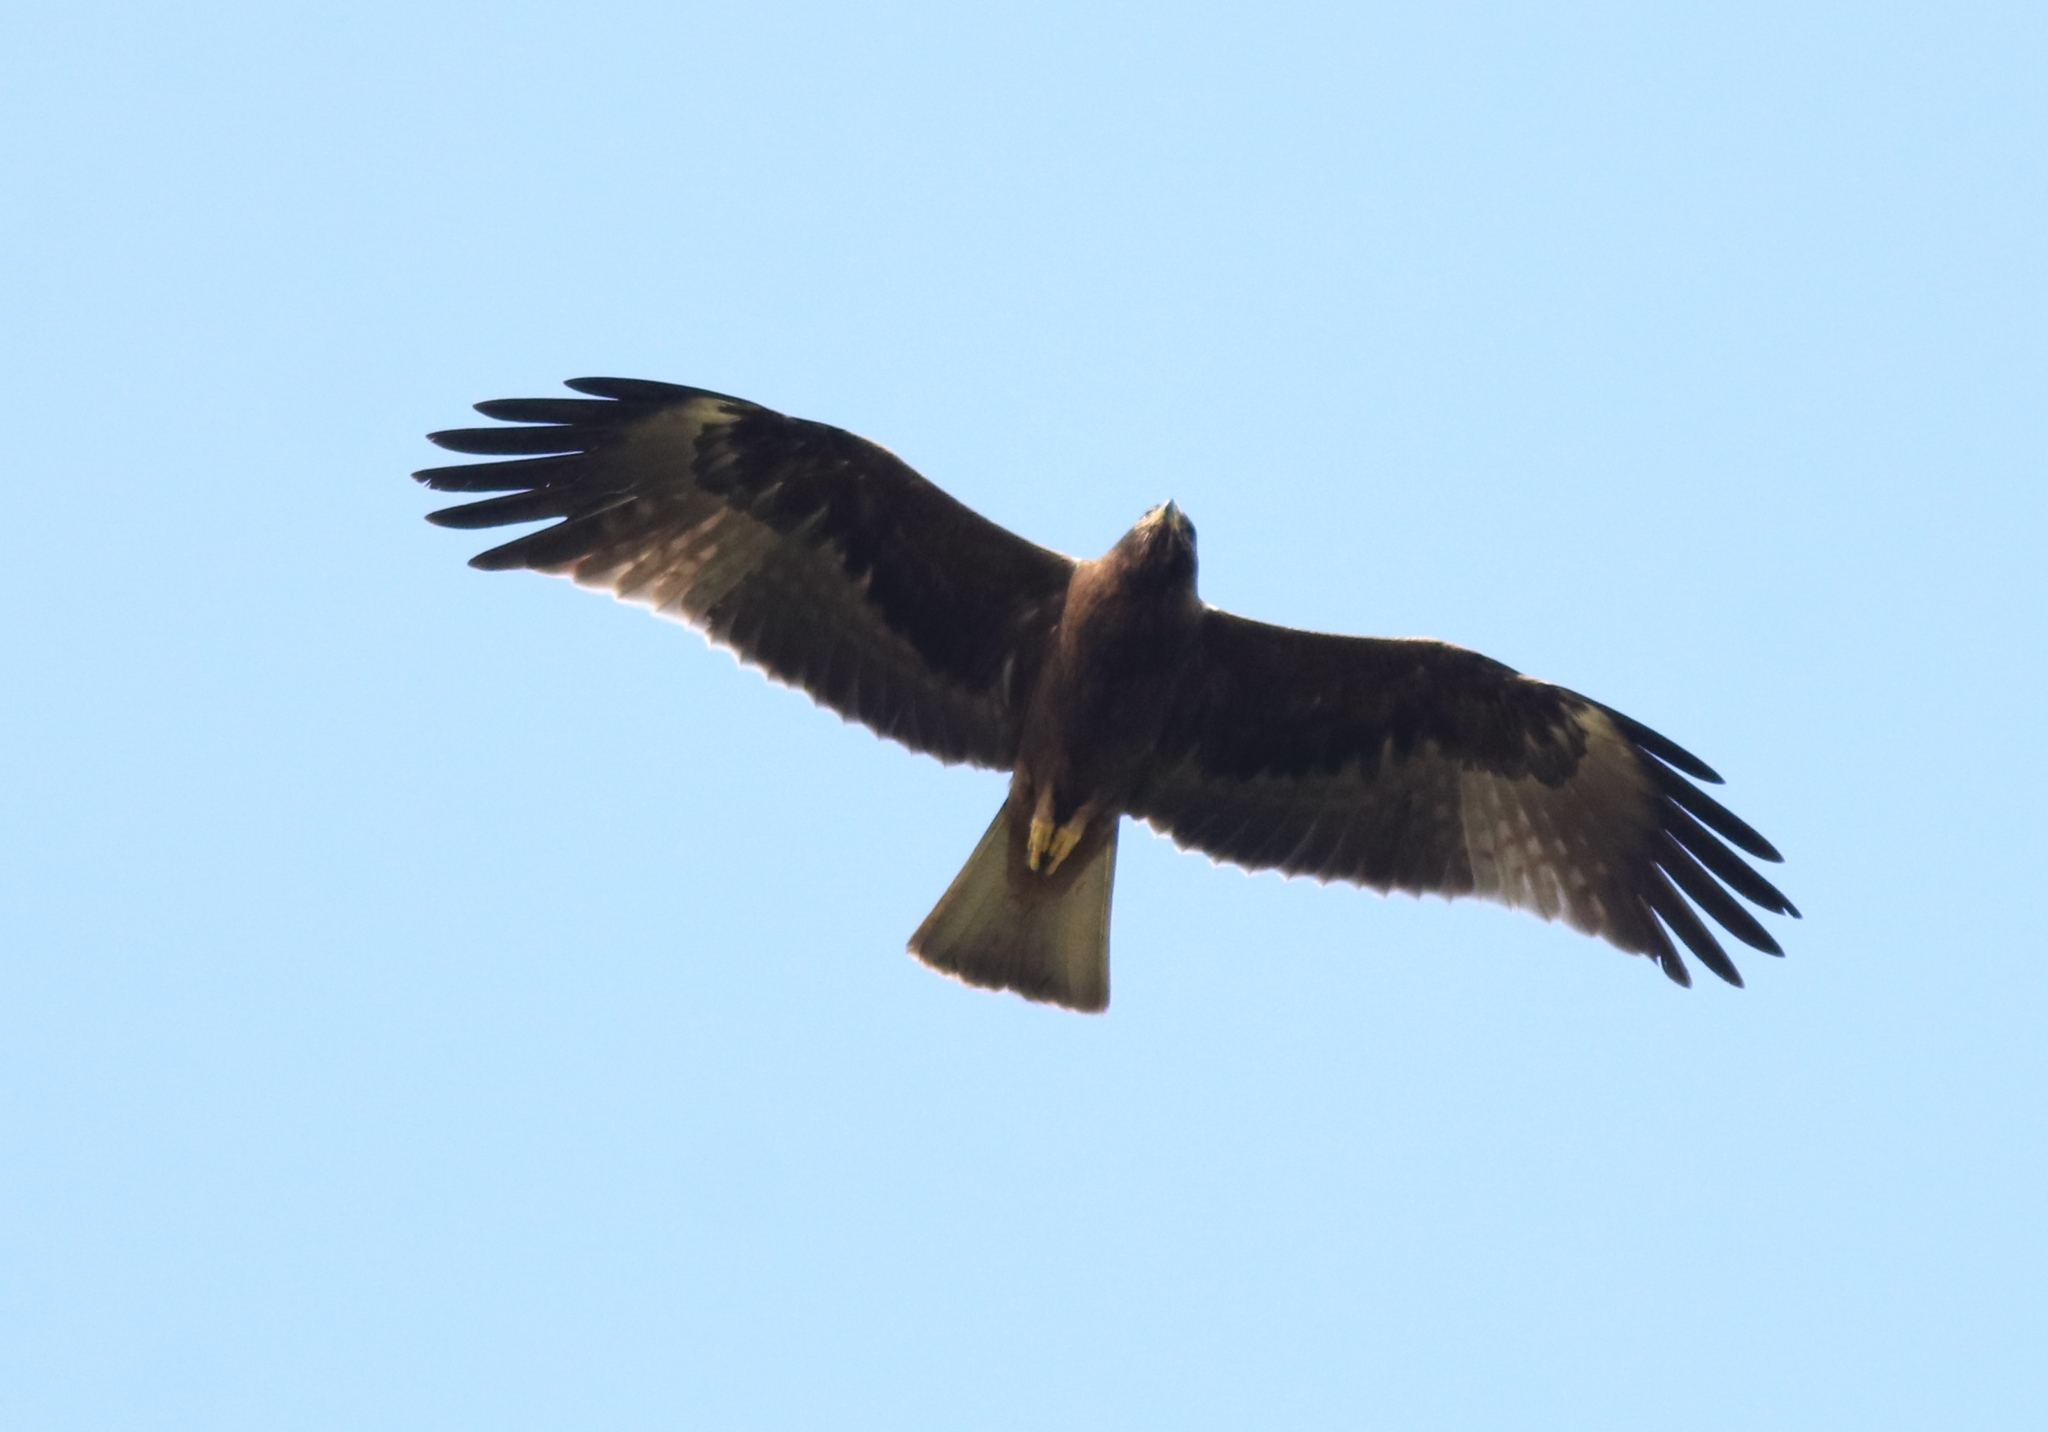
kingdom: Animalia
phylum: Chordata
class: Aves
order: Accipitriformes
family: Accipitridae
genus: Hieraaetus
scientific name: Hieraaetus pennatus
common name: Booted eagle
